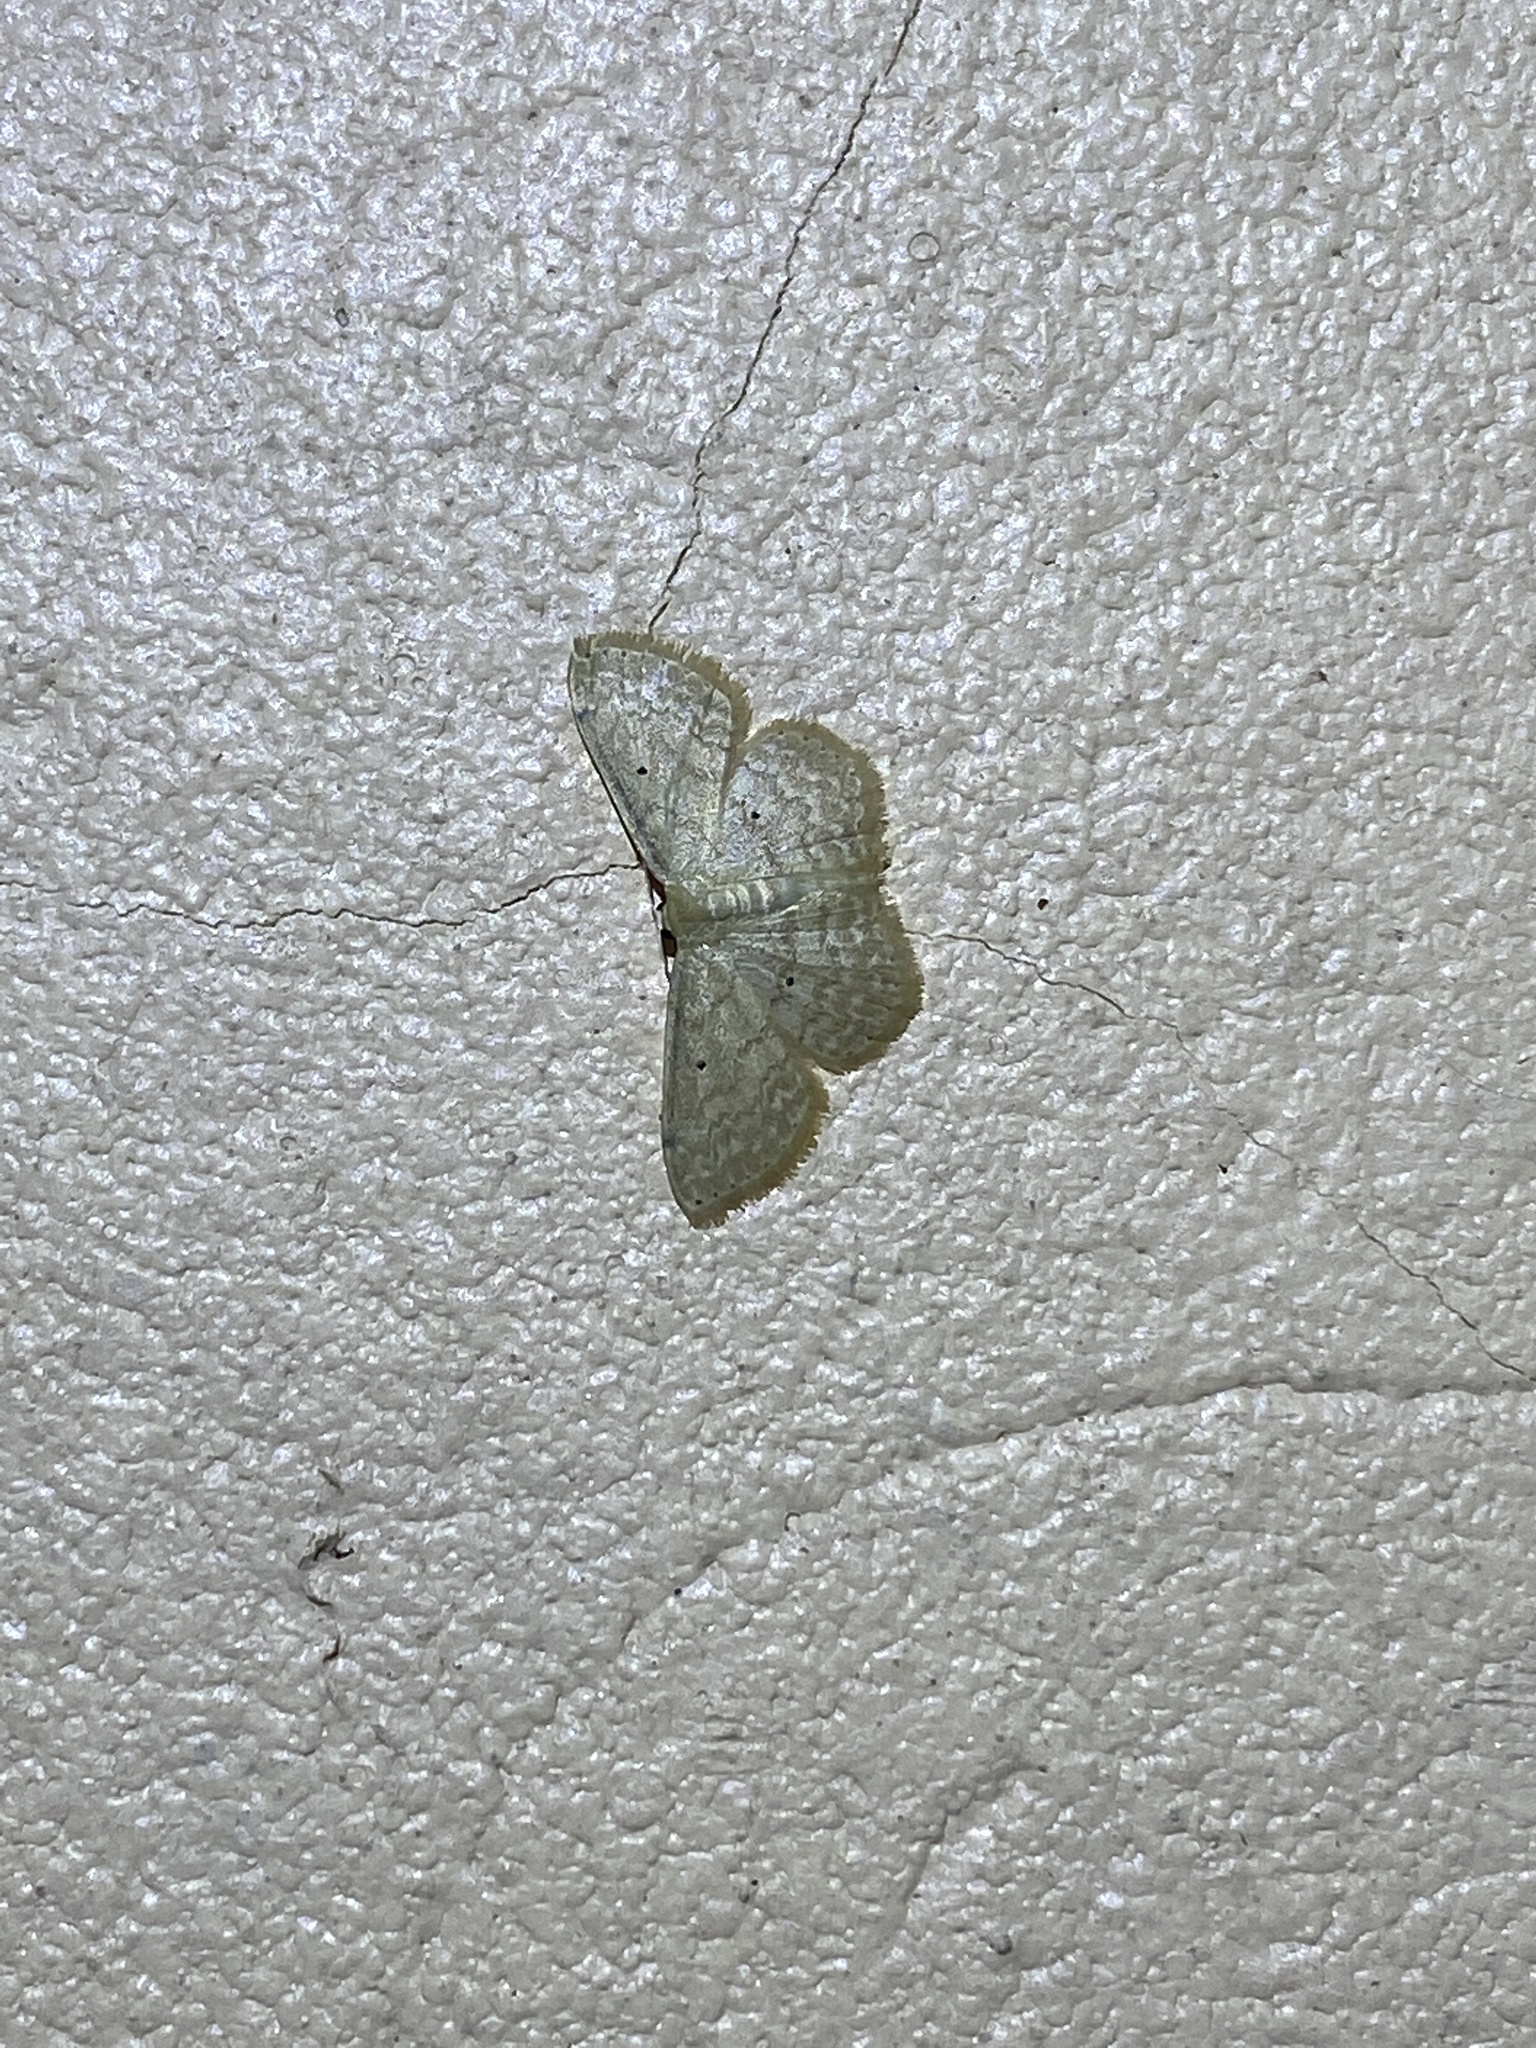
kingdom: Animalia
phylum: Arthropoda
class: Insecta
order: Lepidoptera
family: Geometridae
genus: Scopula
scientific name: Scopula apparitaria
